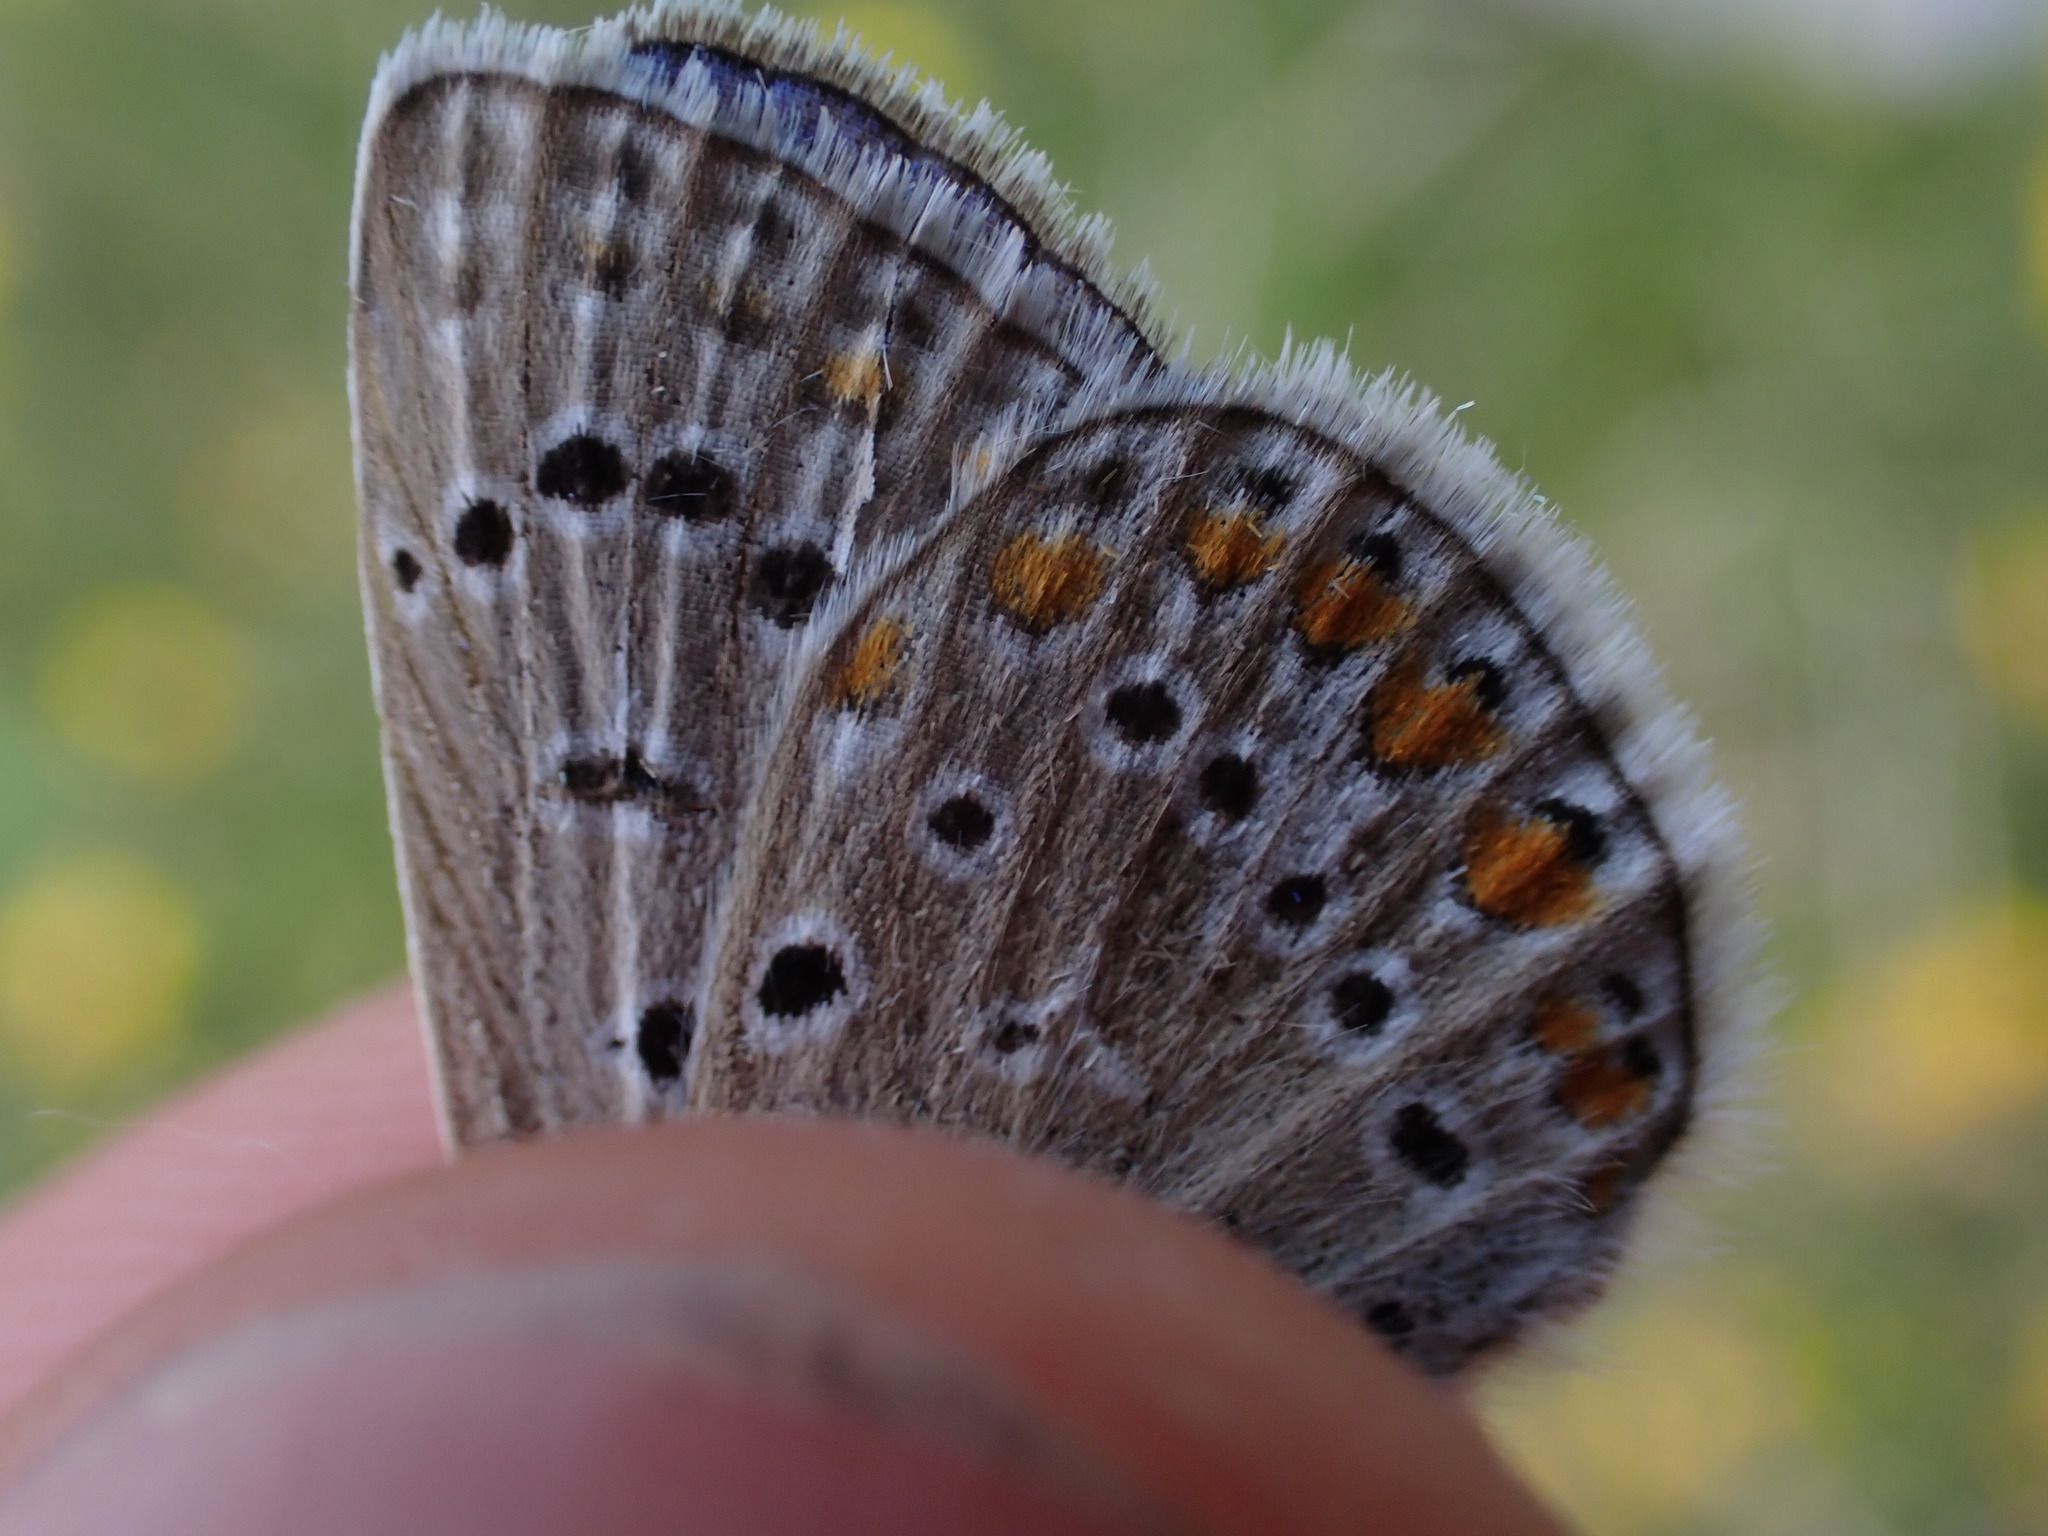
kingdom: Animalia
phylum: Arthropoda
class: Insecta
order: Lepidoptera
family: Lycaenidae
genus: Polyommatus
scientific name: Polyommatus icarus
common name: Common blue
